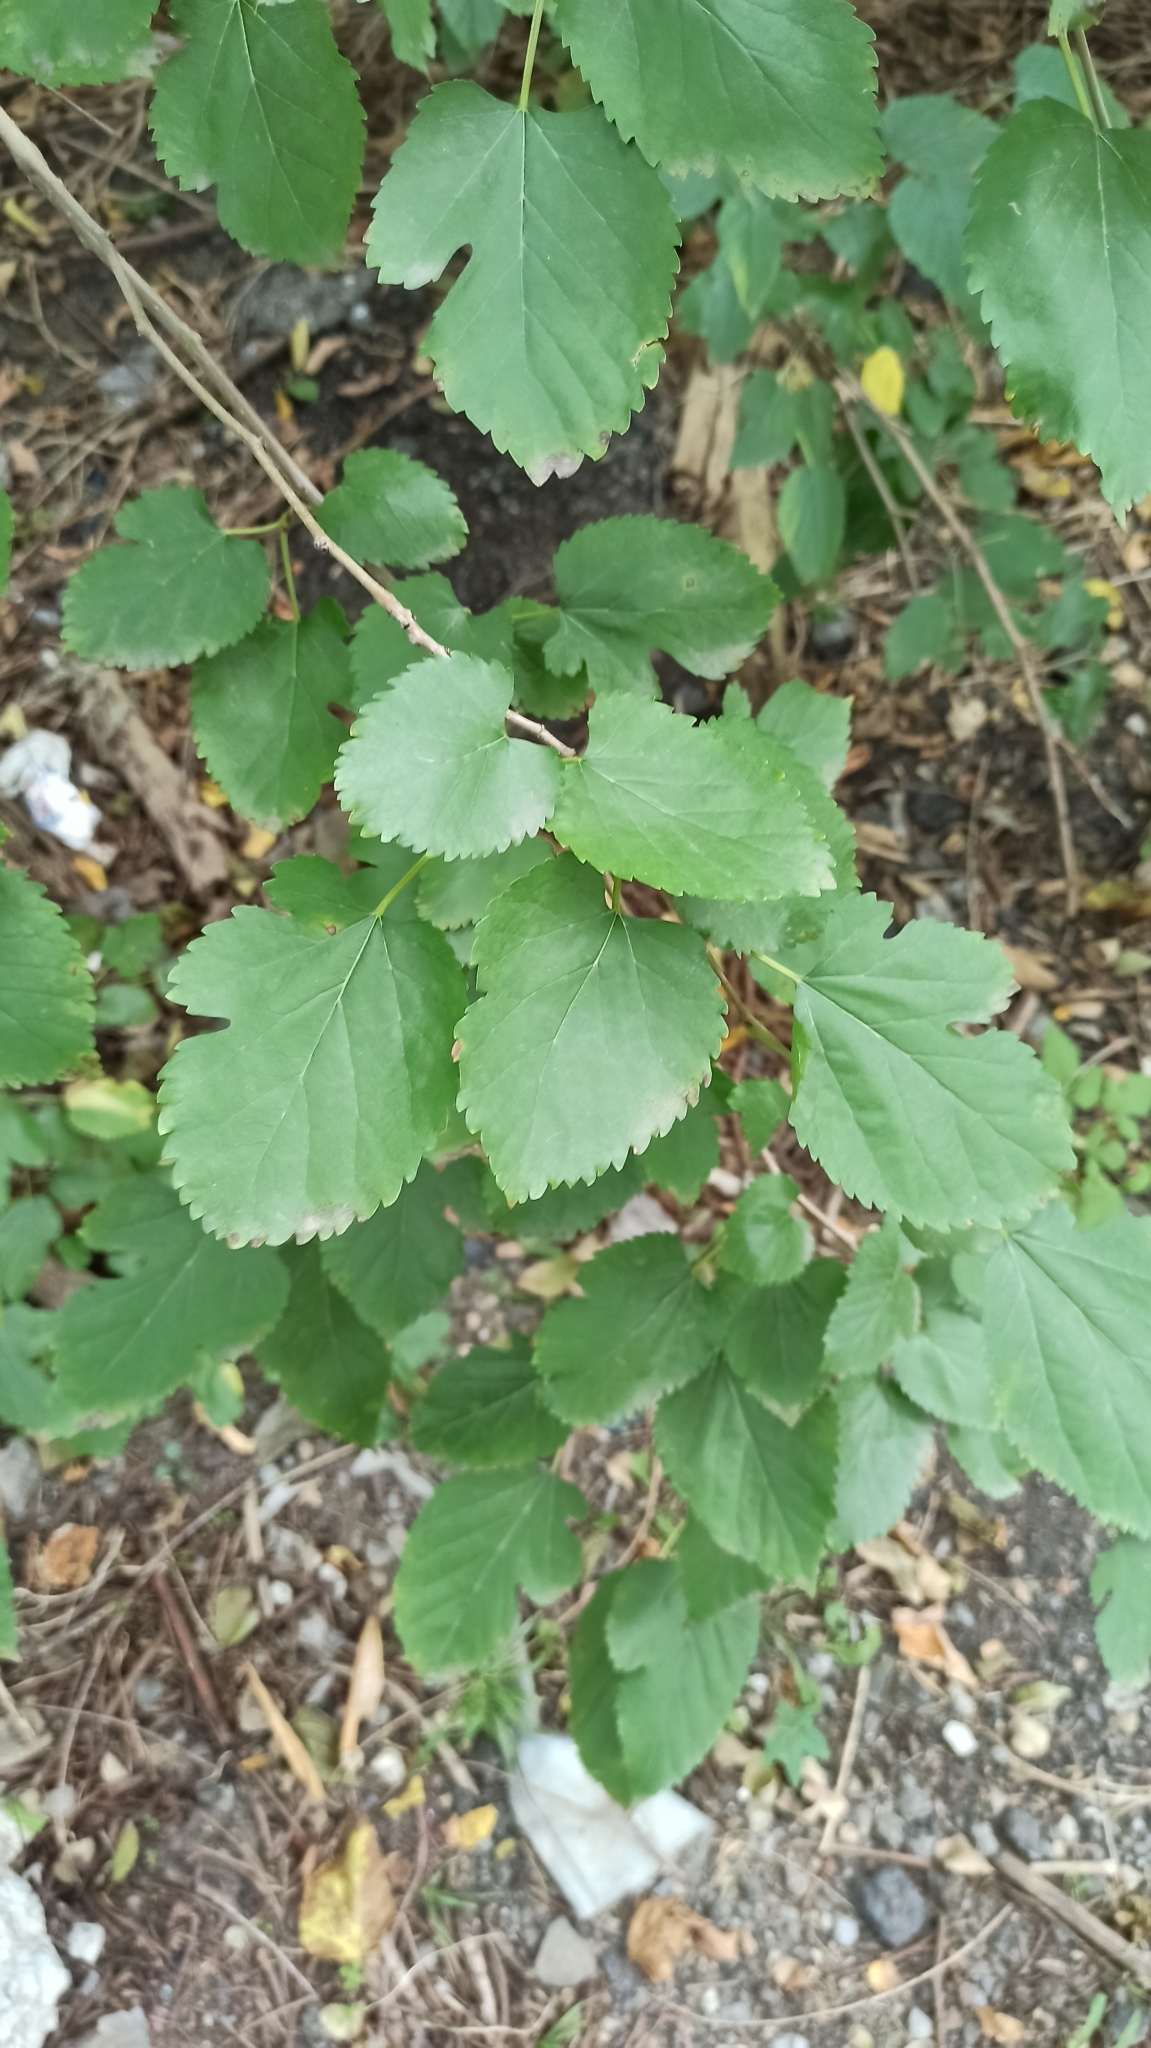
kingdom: Plantae
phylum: Tracheophyta
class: Magnoliopsida
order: Rosales
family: Moraceae
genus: Morus
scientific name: Morus alba
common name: White mulberry
